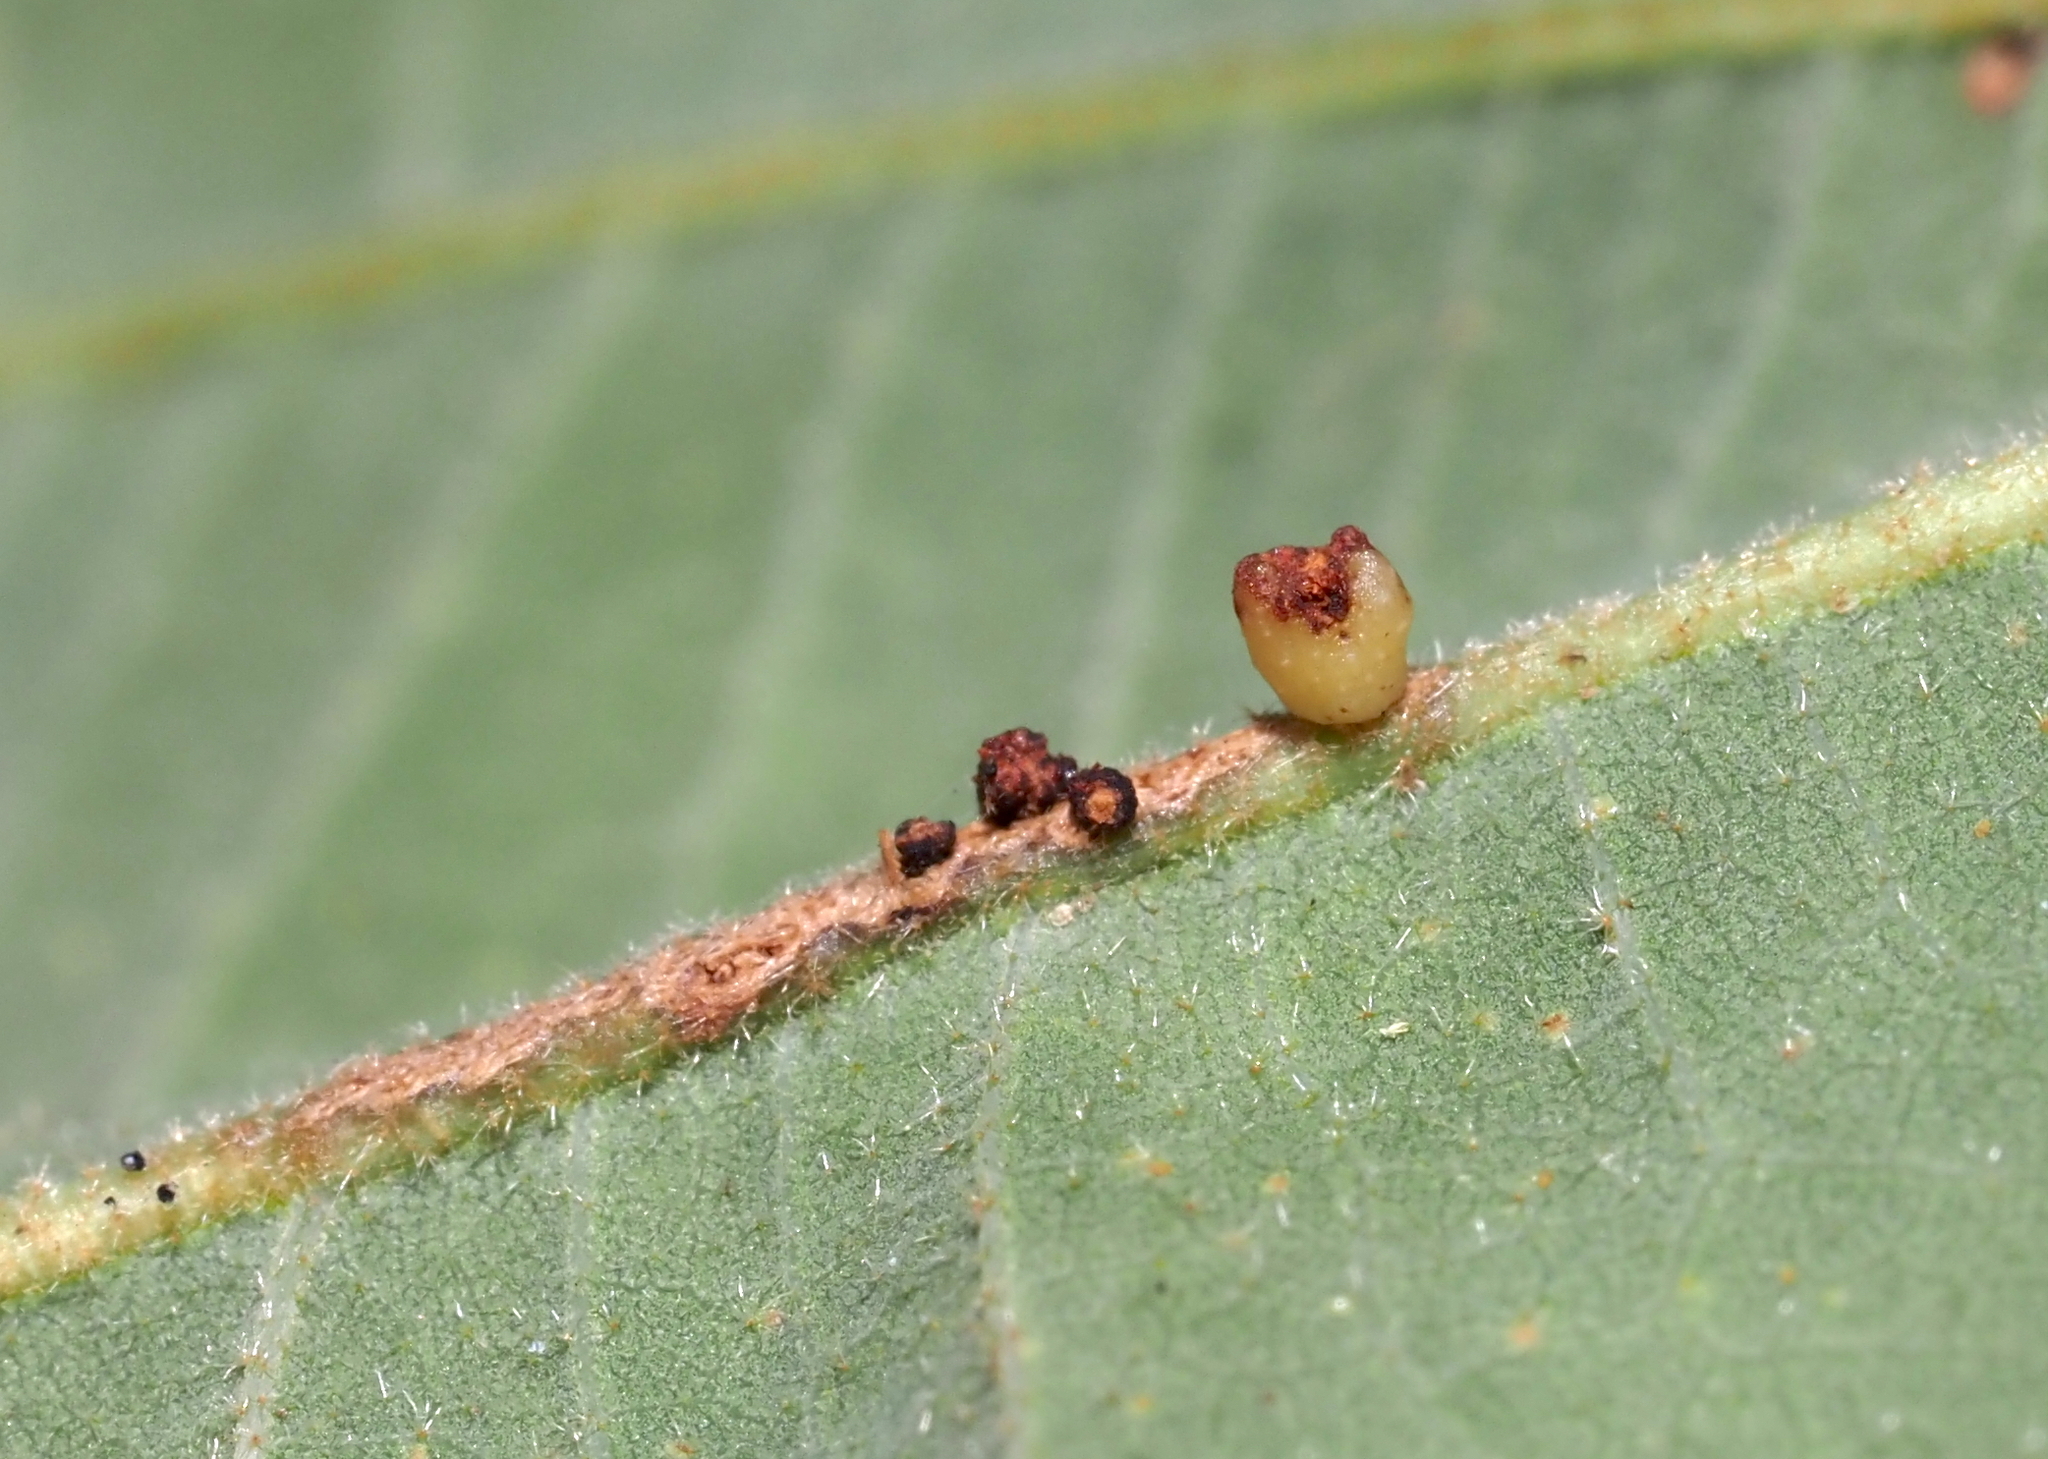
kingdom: Animalia
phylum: Arthropoda
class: Insecta
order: Hymenoptera
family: Cynipidae
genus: Andricus
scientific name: Andricus
